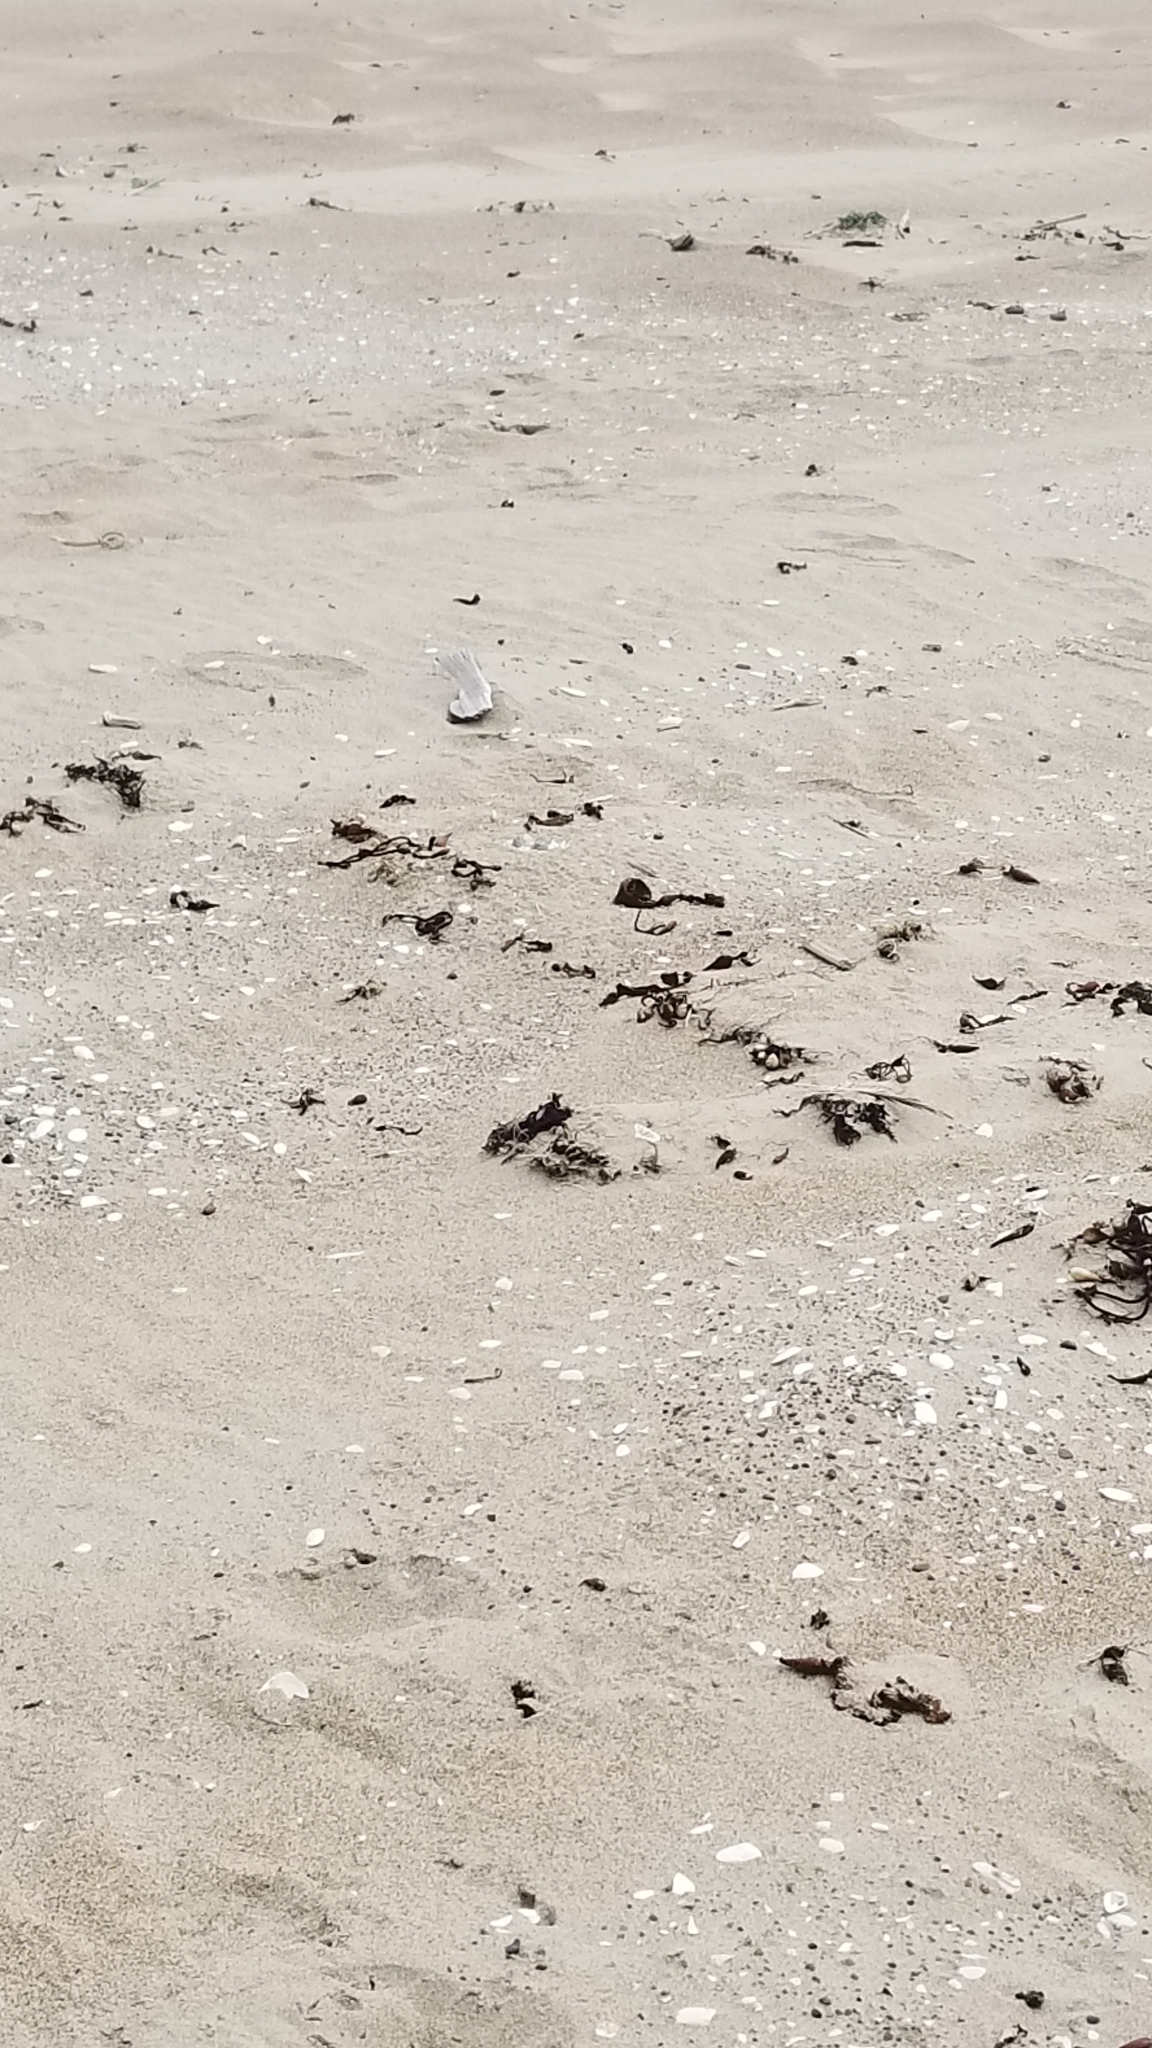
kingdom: Animalia
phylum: Arthropoda
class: Insecta
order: Orthoptera
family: Rhaphidophoridae
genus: Rhachocnemis
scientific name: Rhachocnemis validus
